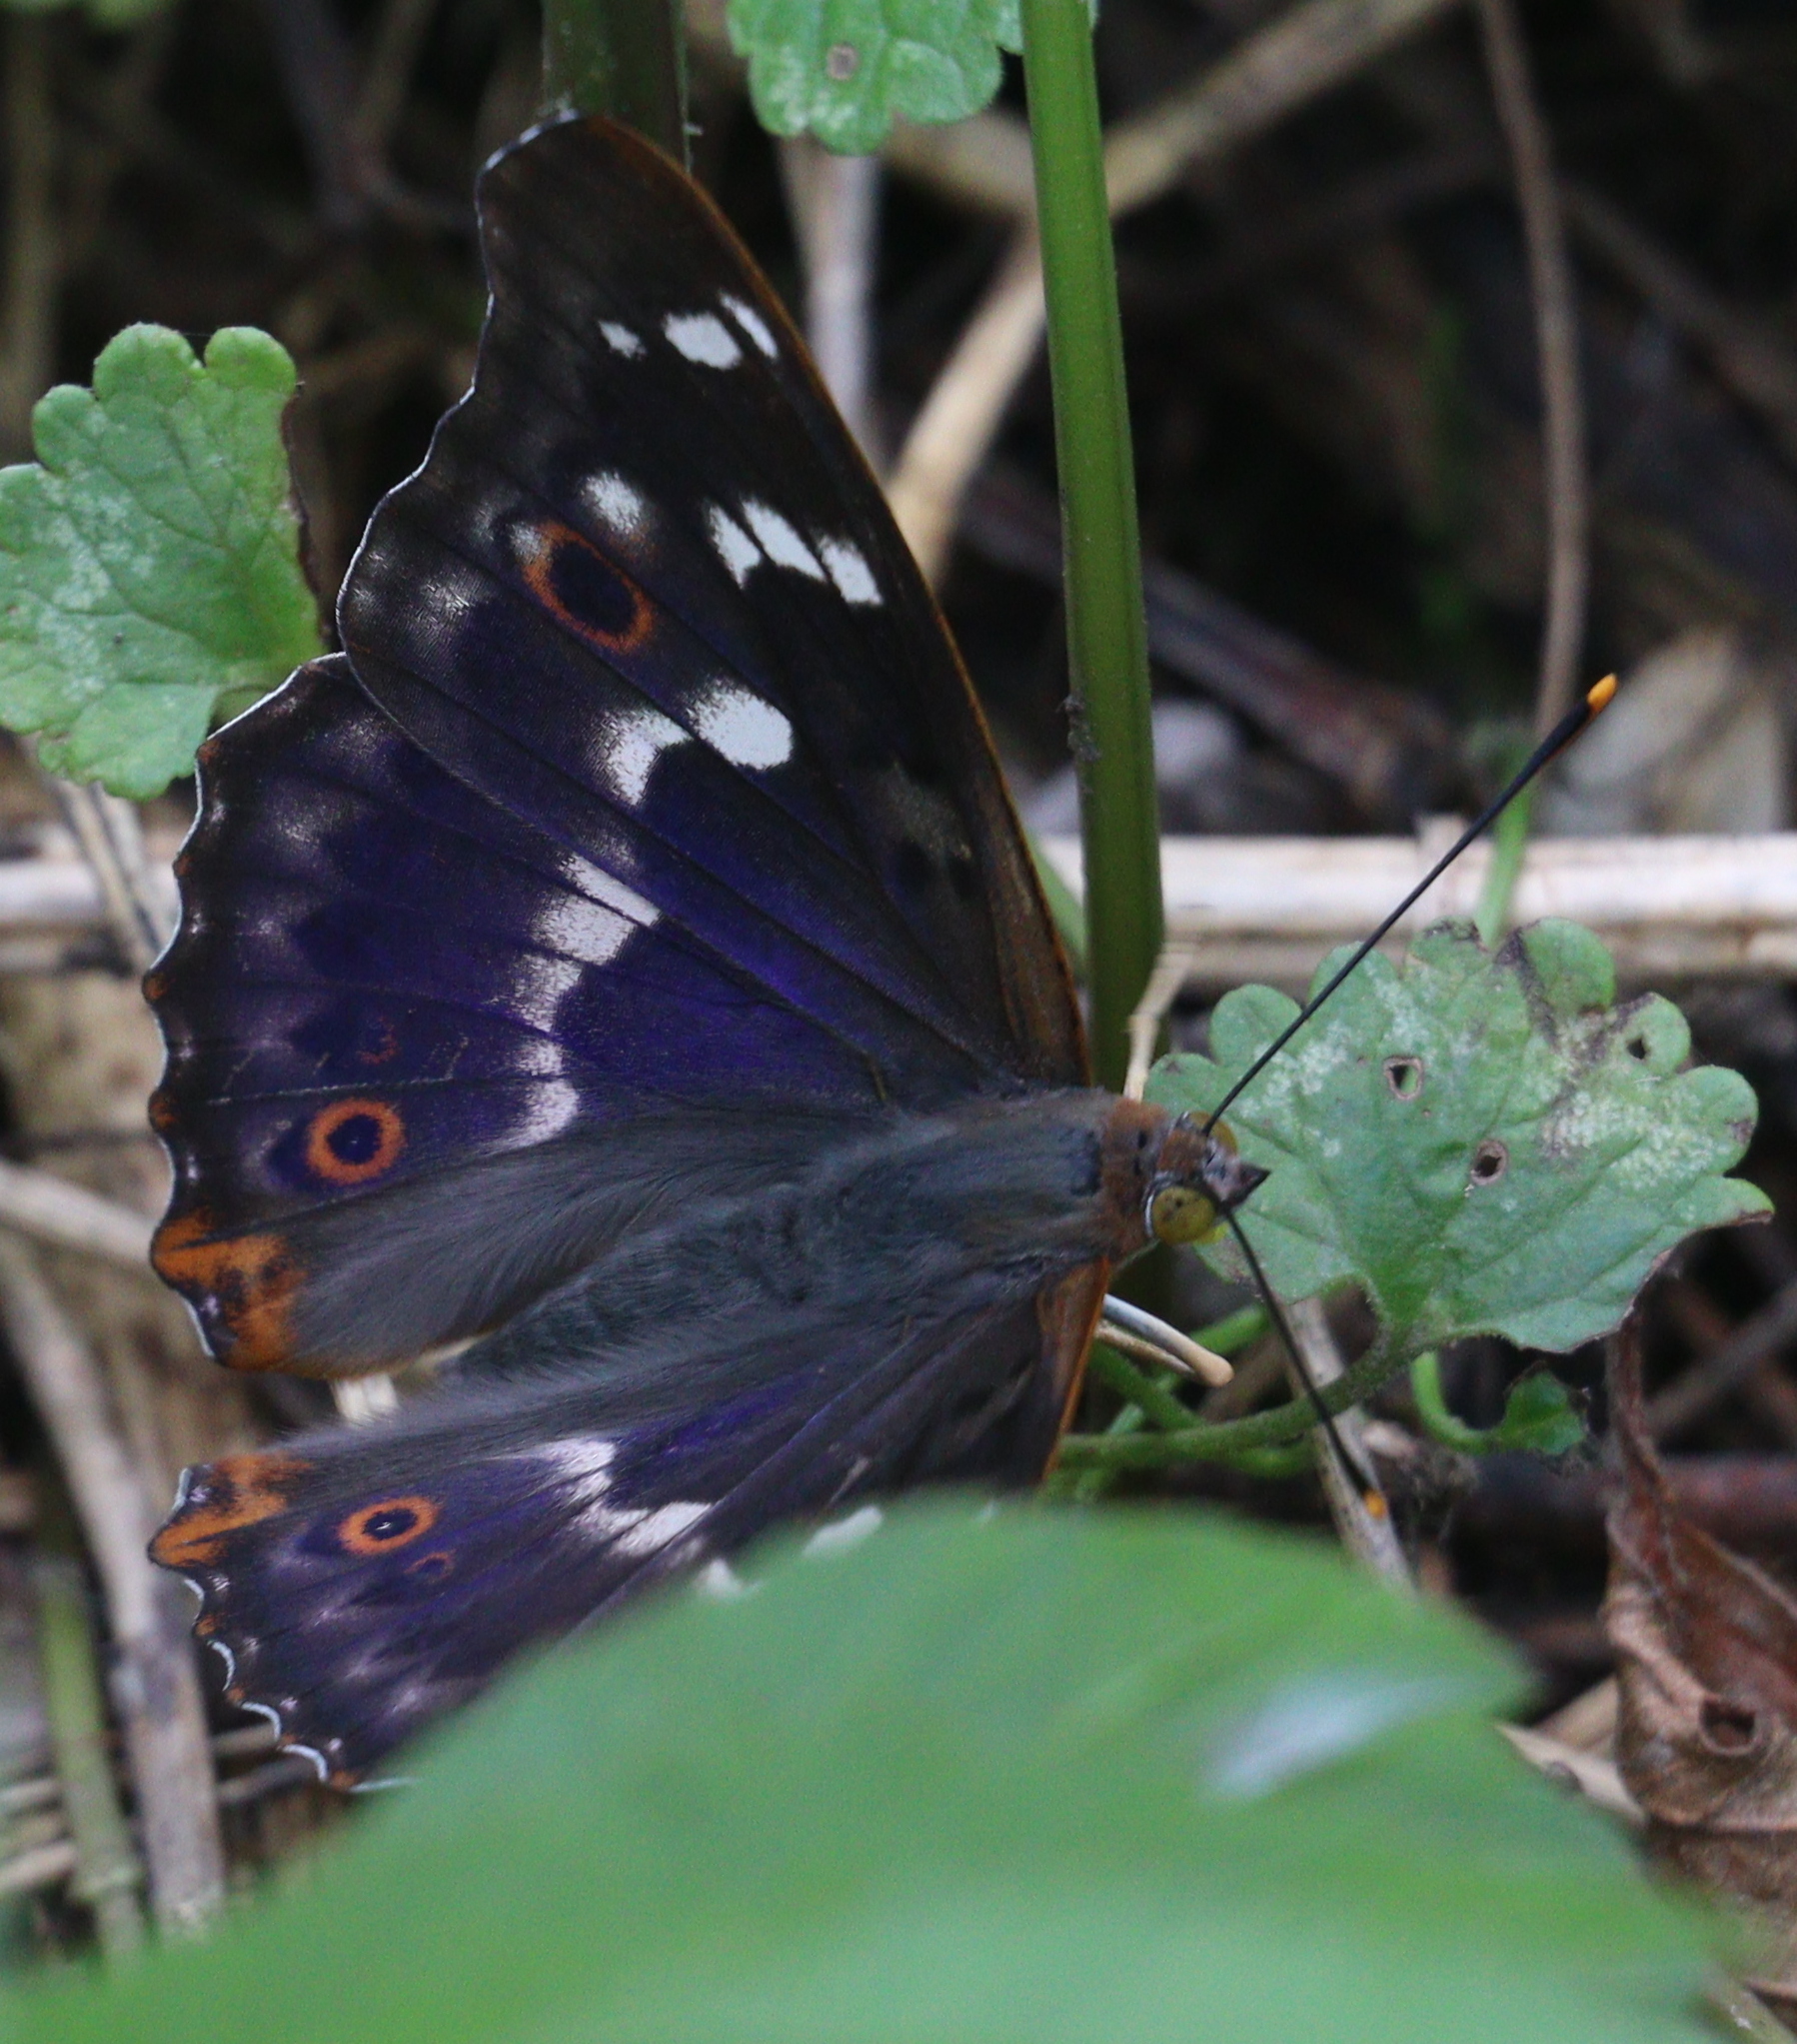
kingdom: Animalia
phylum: Arthropoda
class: Insecta
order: Lepidoptera
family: Nymphalidae
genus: Apatura
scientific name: Apatura ilia
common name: Lesser purple emperor
